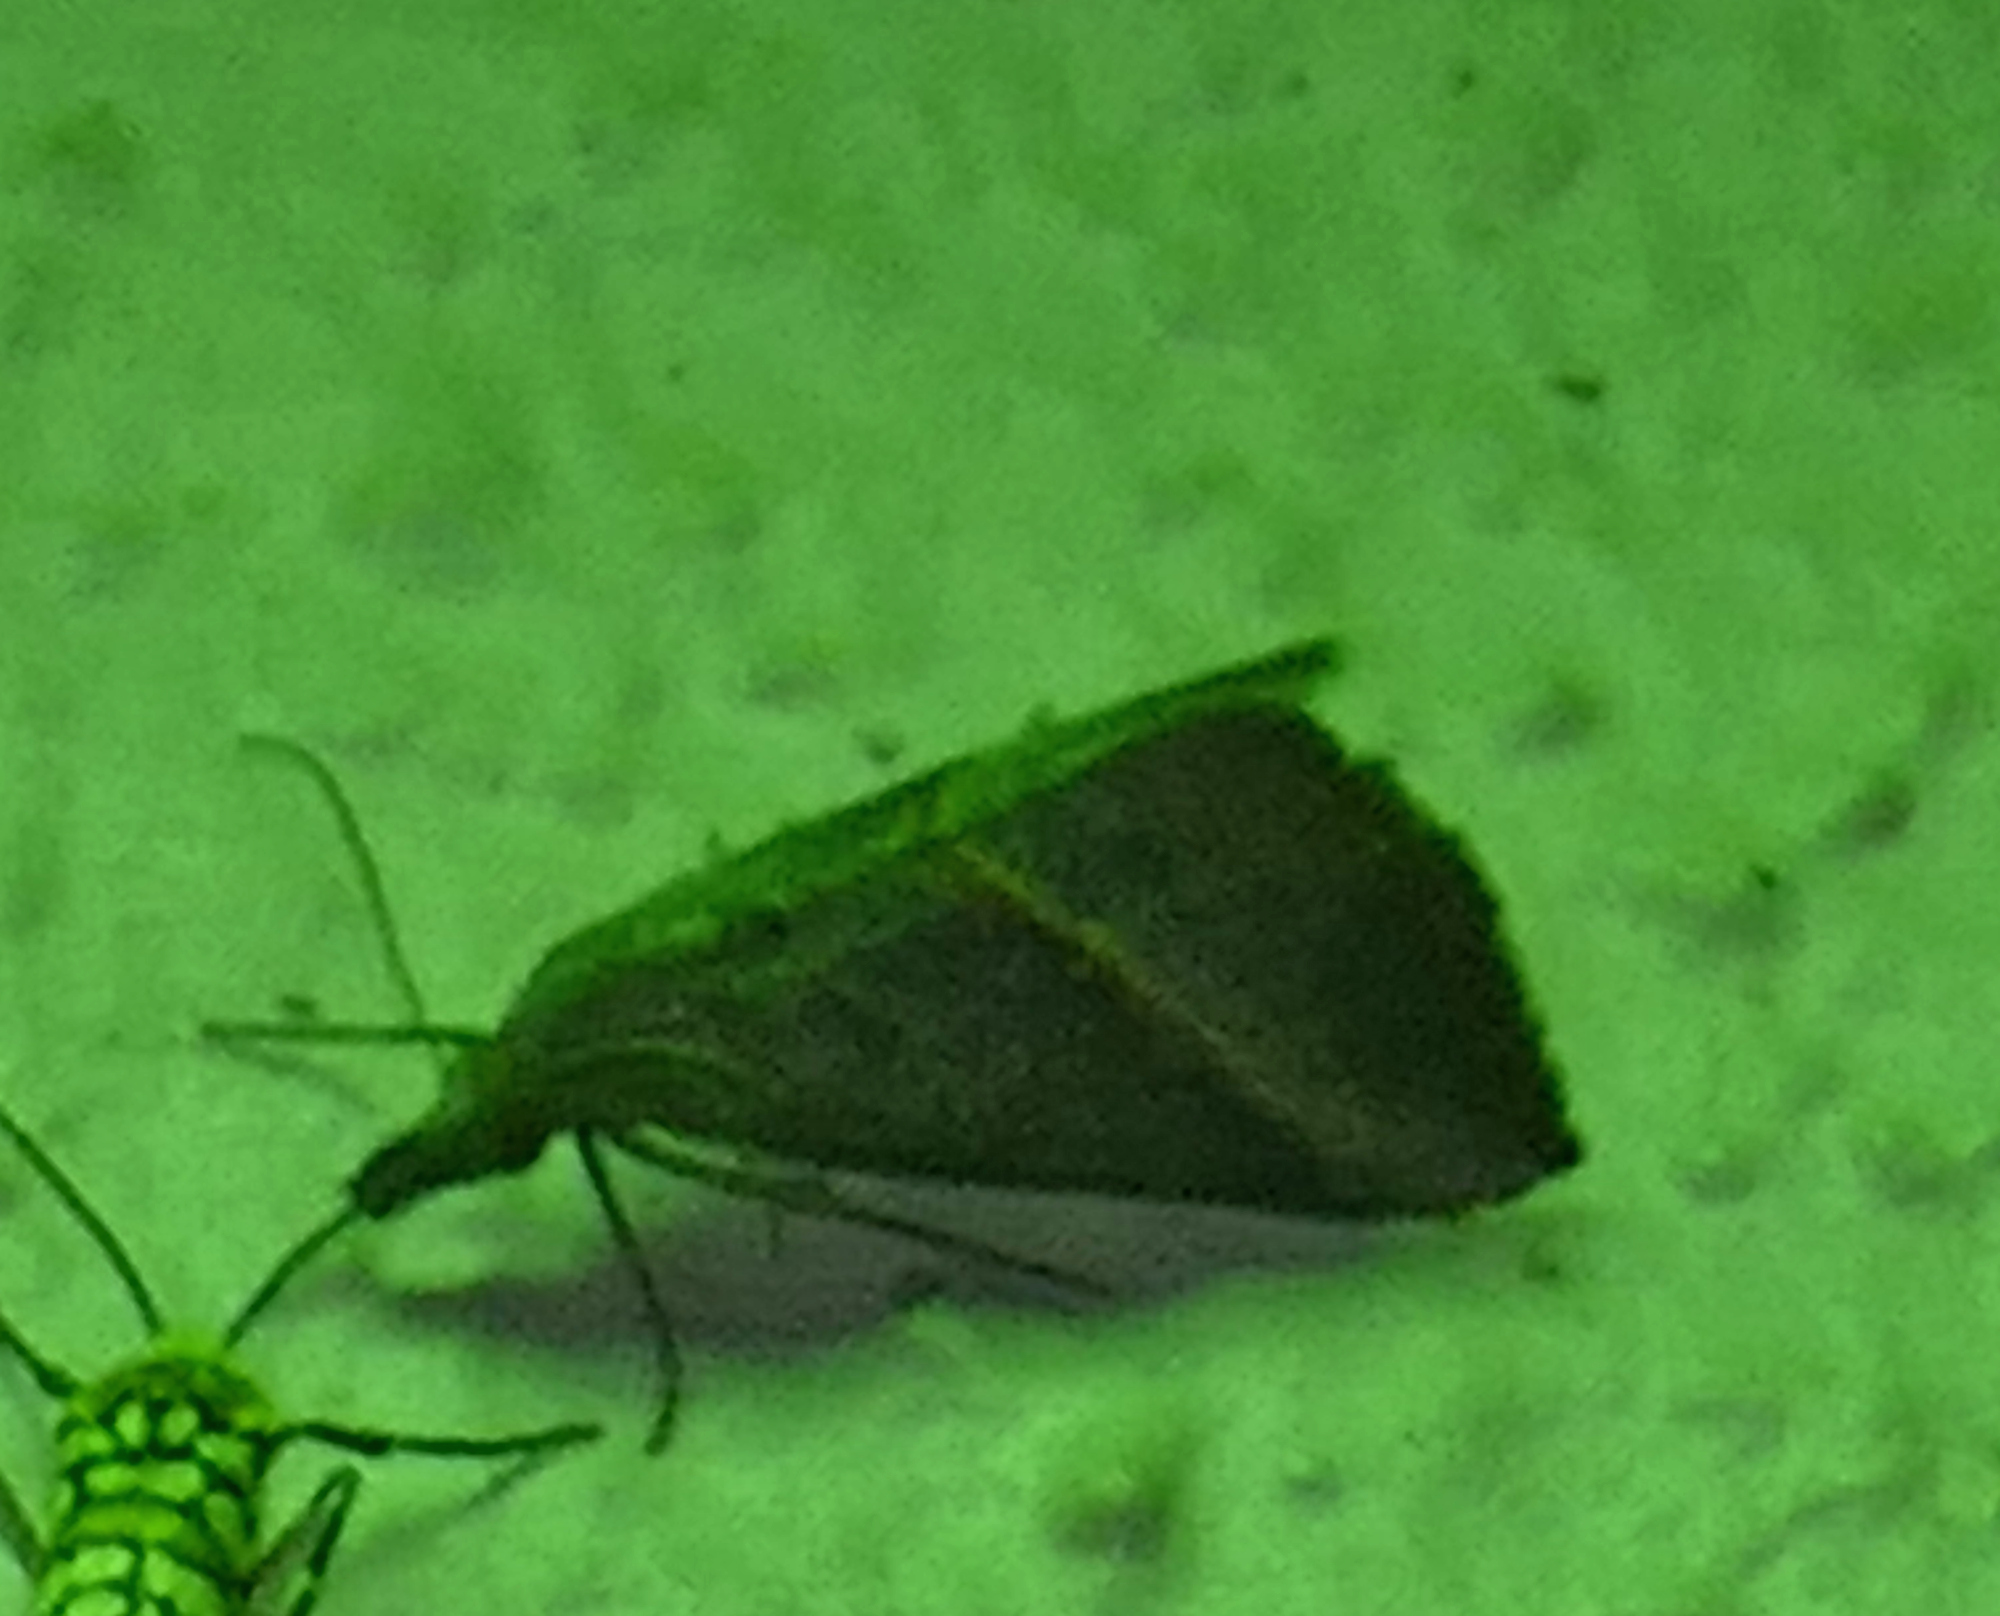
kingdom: Animalia
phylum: Arthropoda
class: Insecta
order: Lepidoptera
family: Erebidae
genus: Hypena
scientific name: Hypena degesalis
